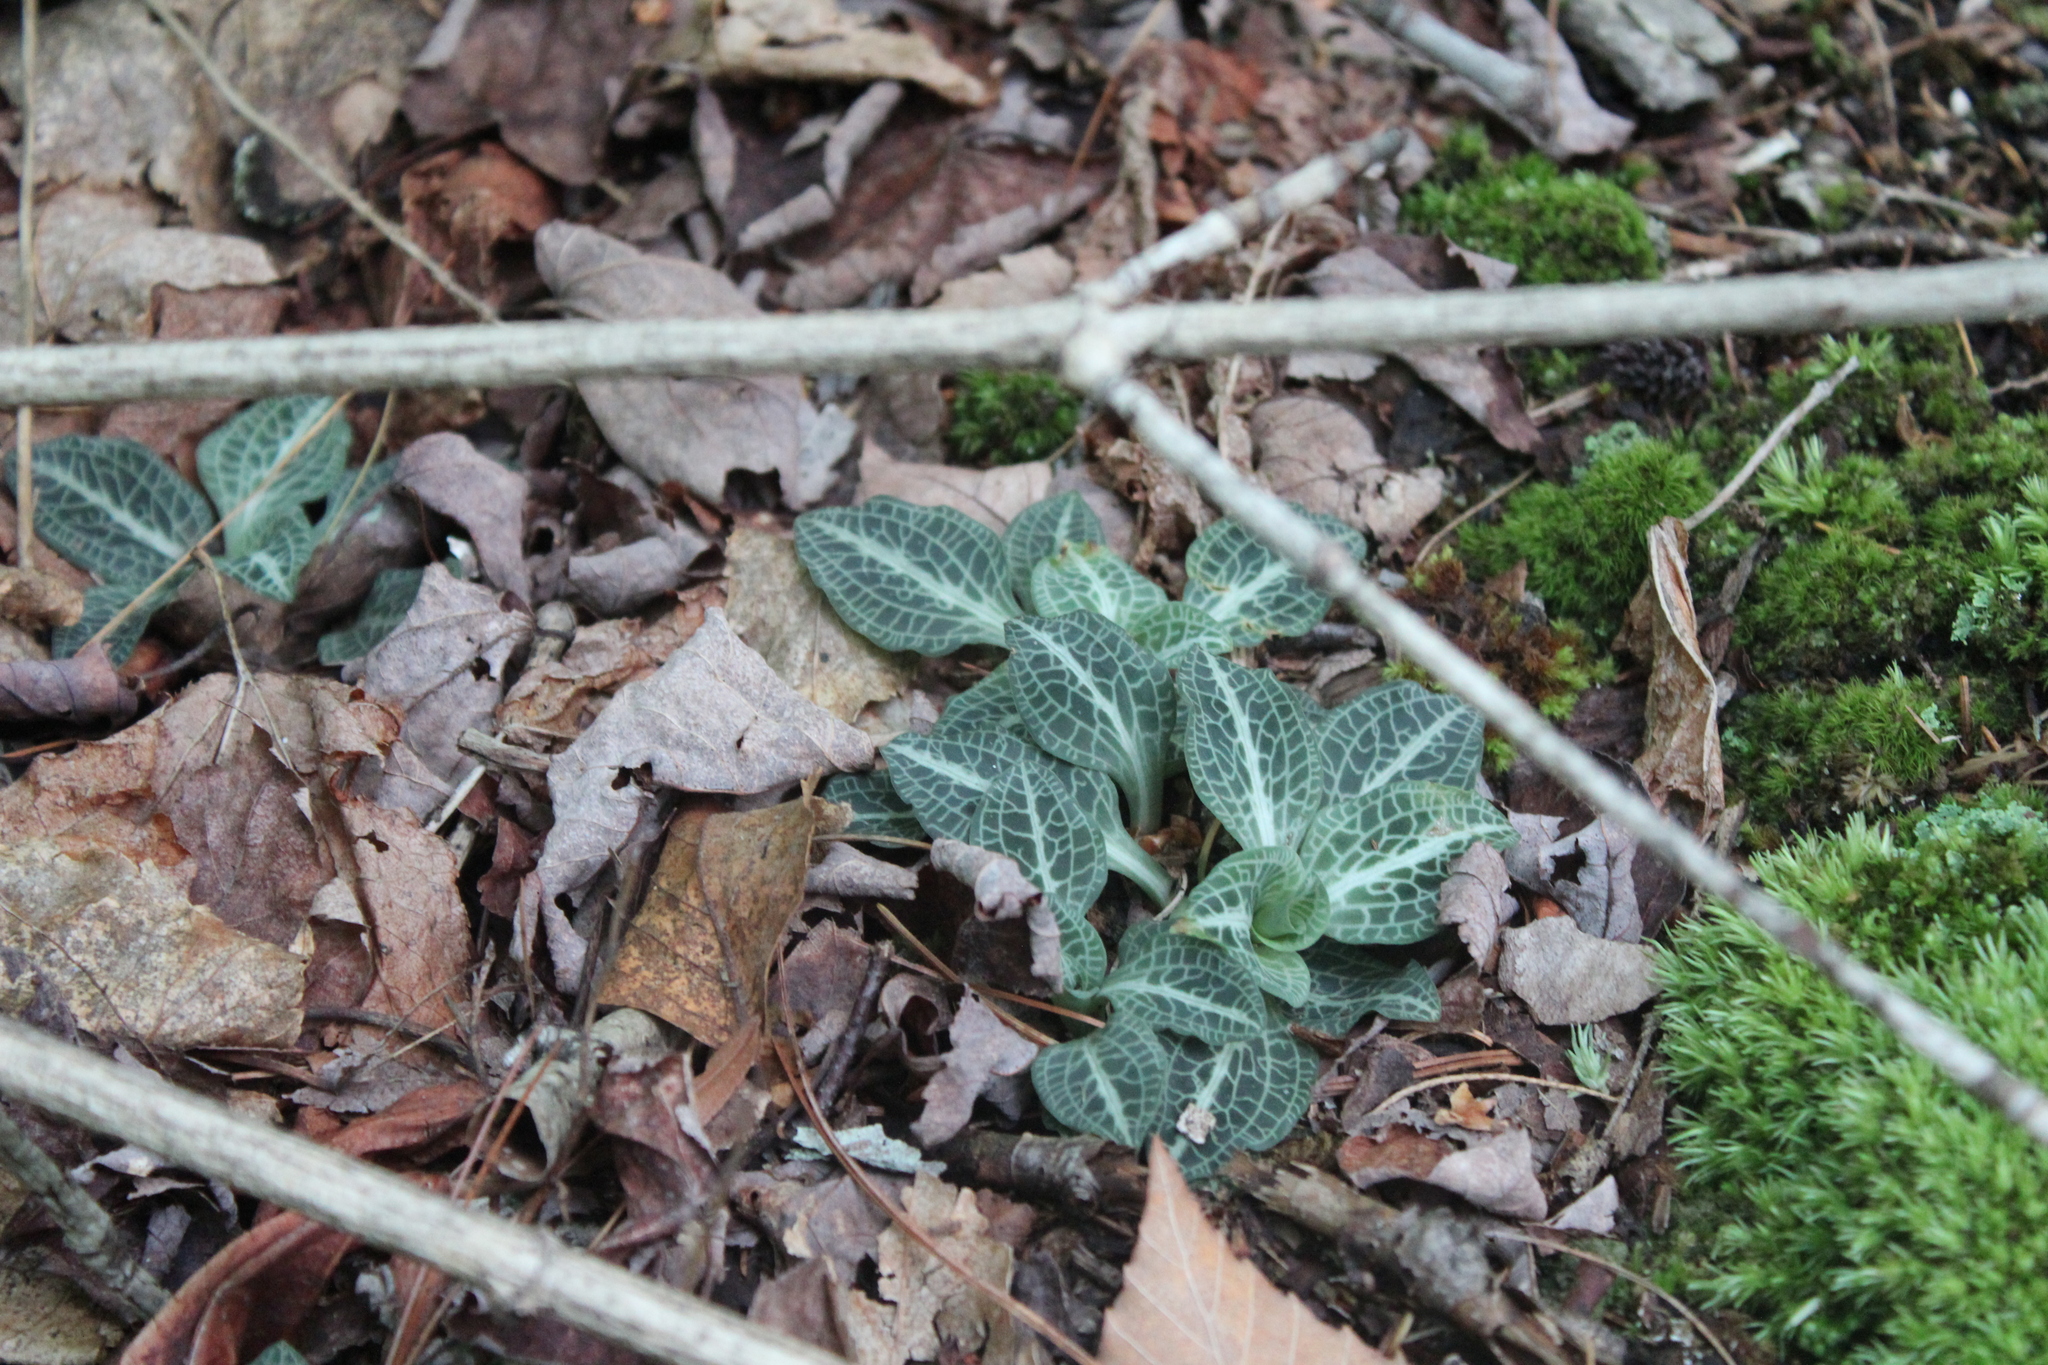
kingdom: Plantae
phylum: Tracheophyta
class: Liliopsida
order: Asparagales
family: Orchidaceae
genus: Goodyera
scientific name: Goodyera pubescens
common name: Downy rattlesnake-plantain
